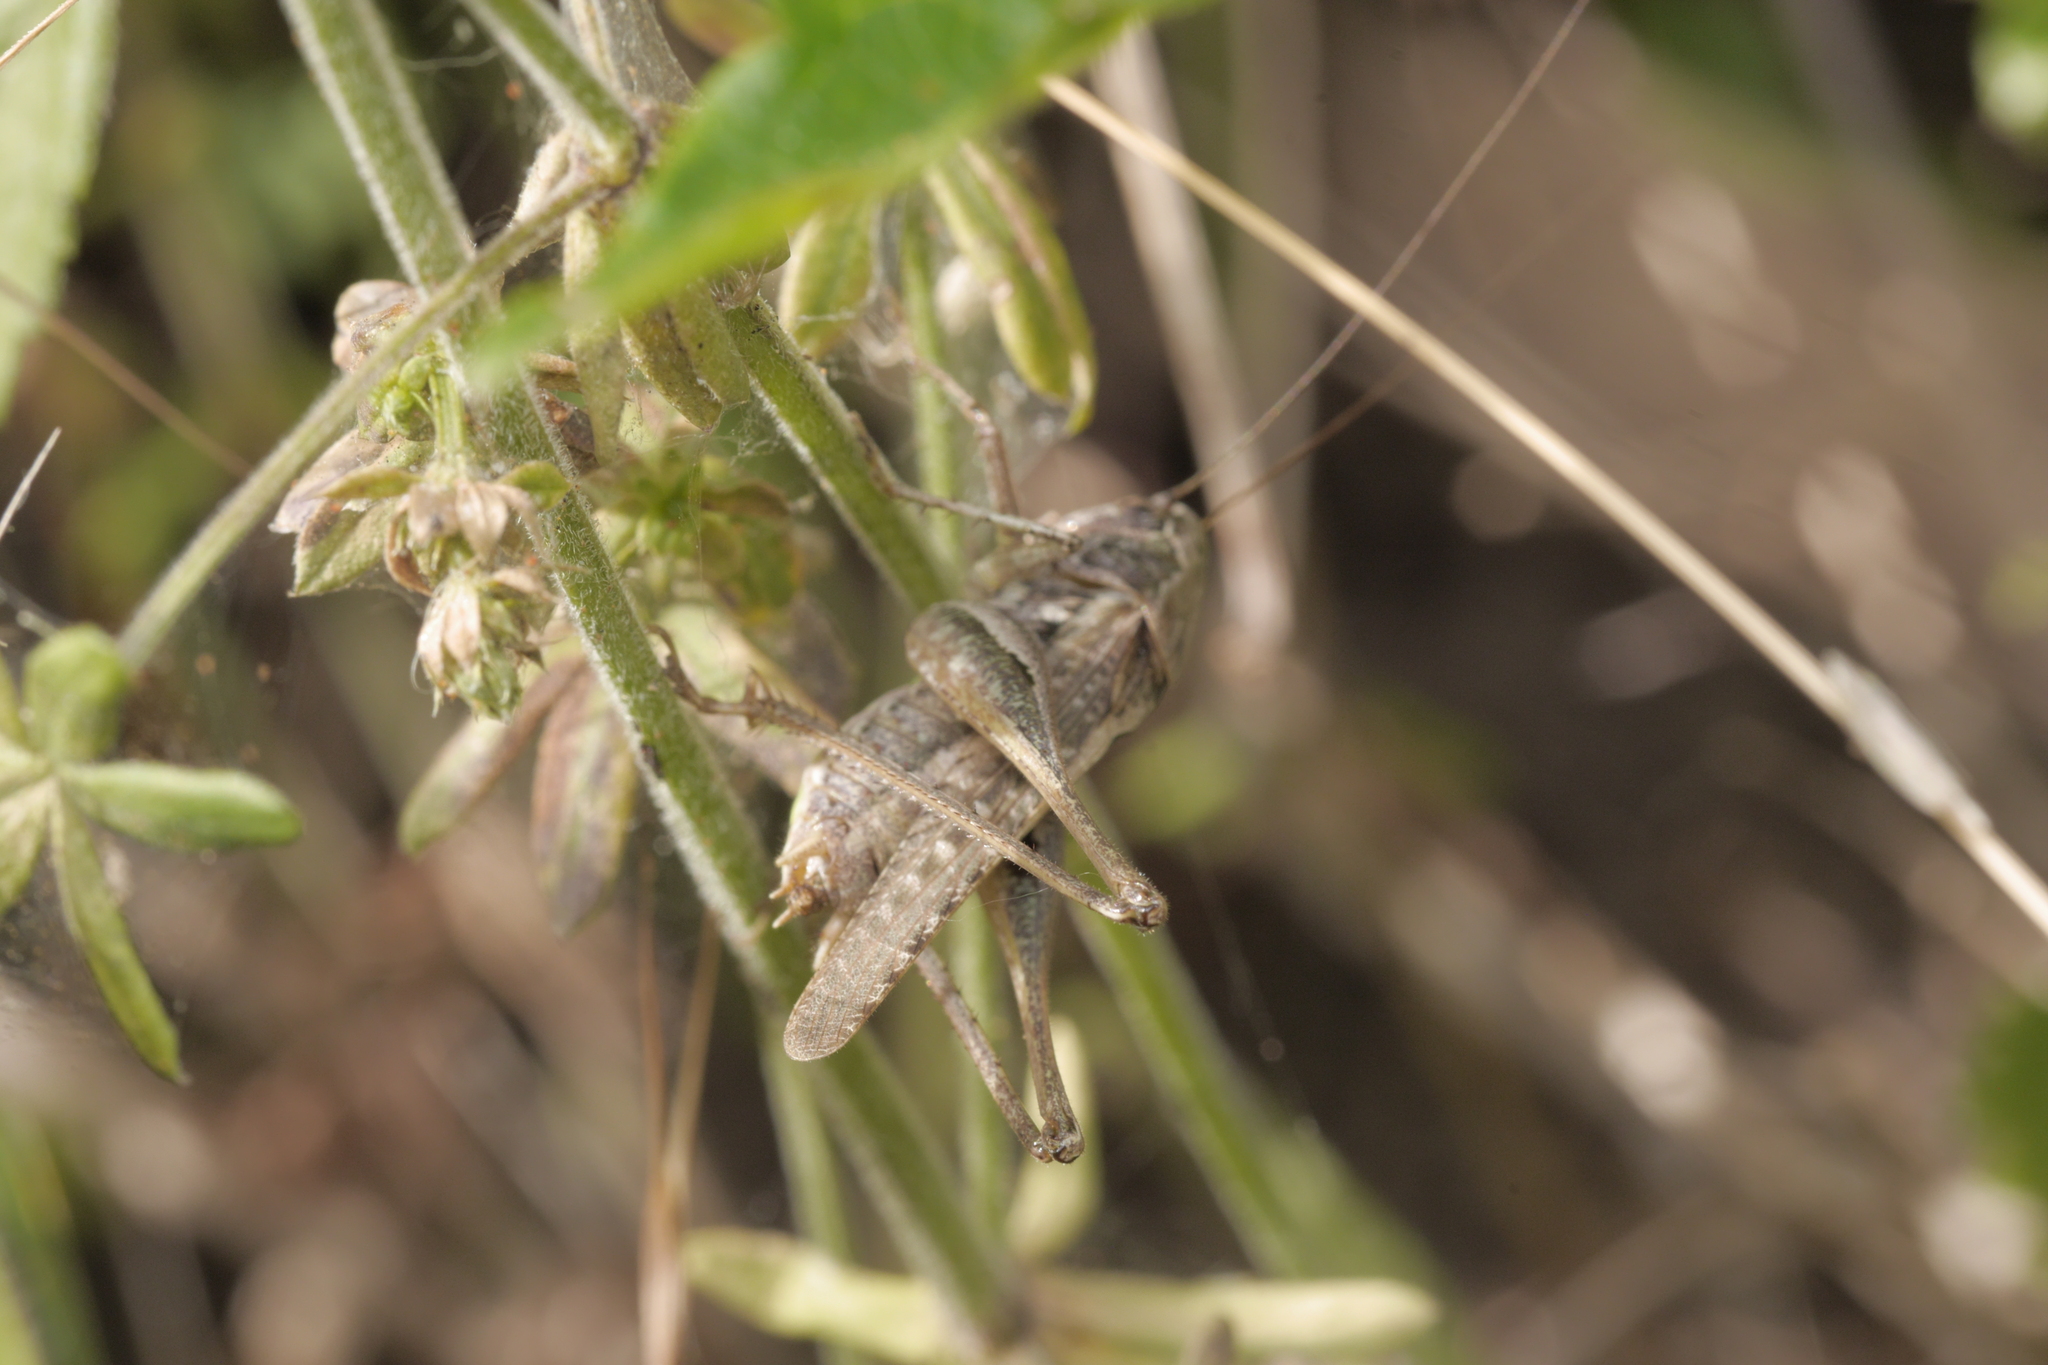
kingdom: Animalia
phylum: Arthropoda
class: Insecta
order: Orthoptera
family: Tettigoniidae
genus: Platycleis
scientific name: Platycleis albopunctata
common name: Grey bush-cricket
